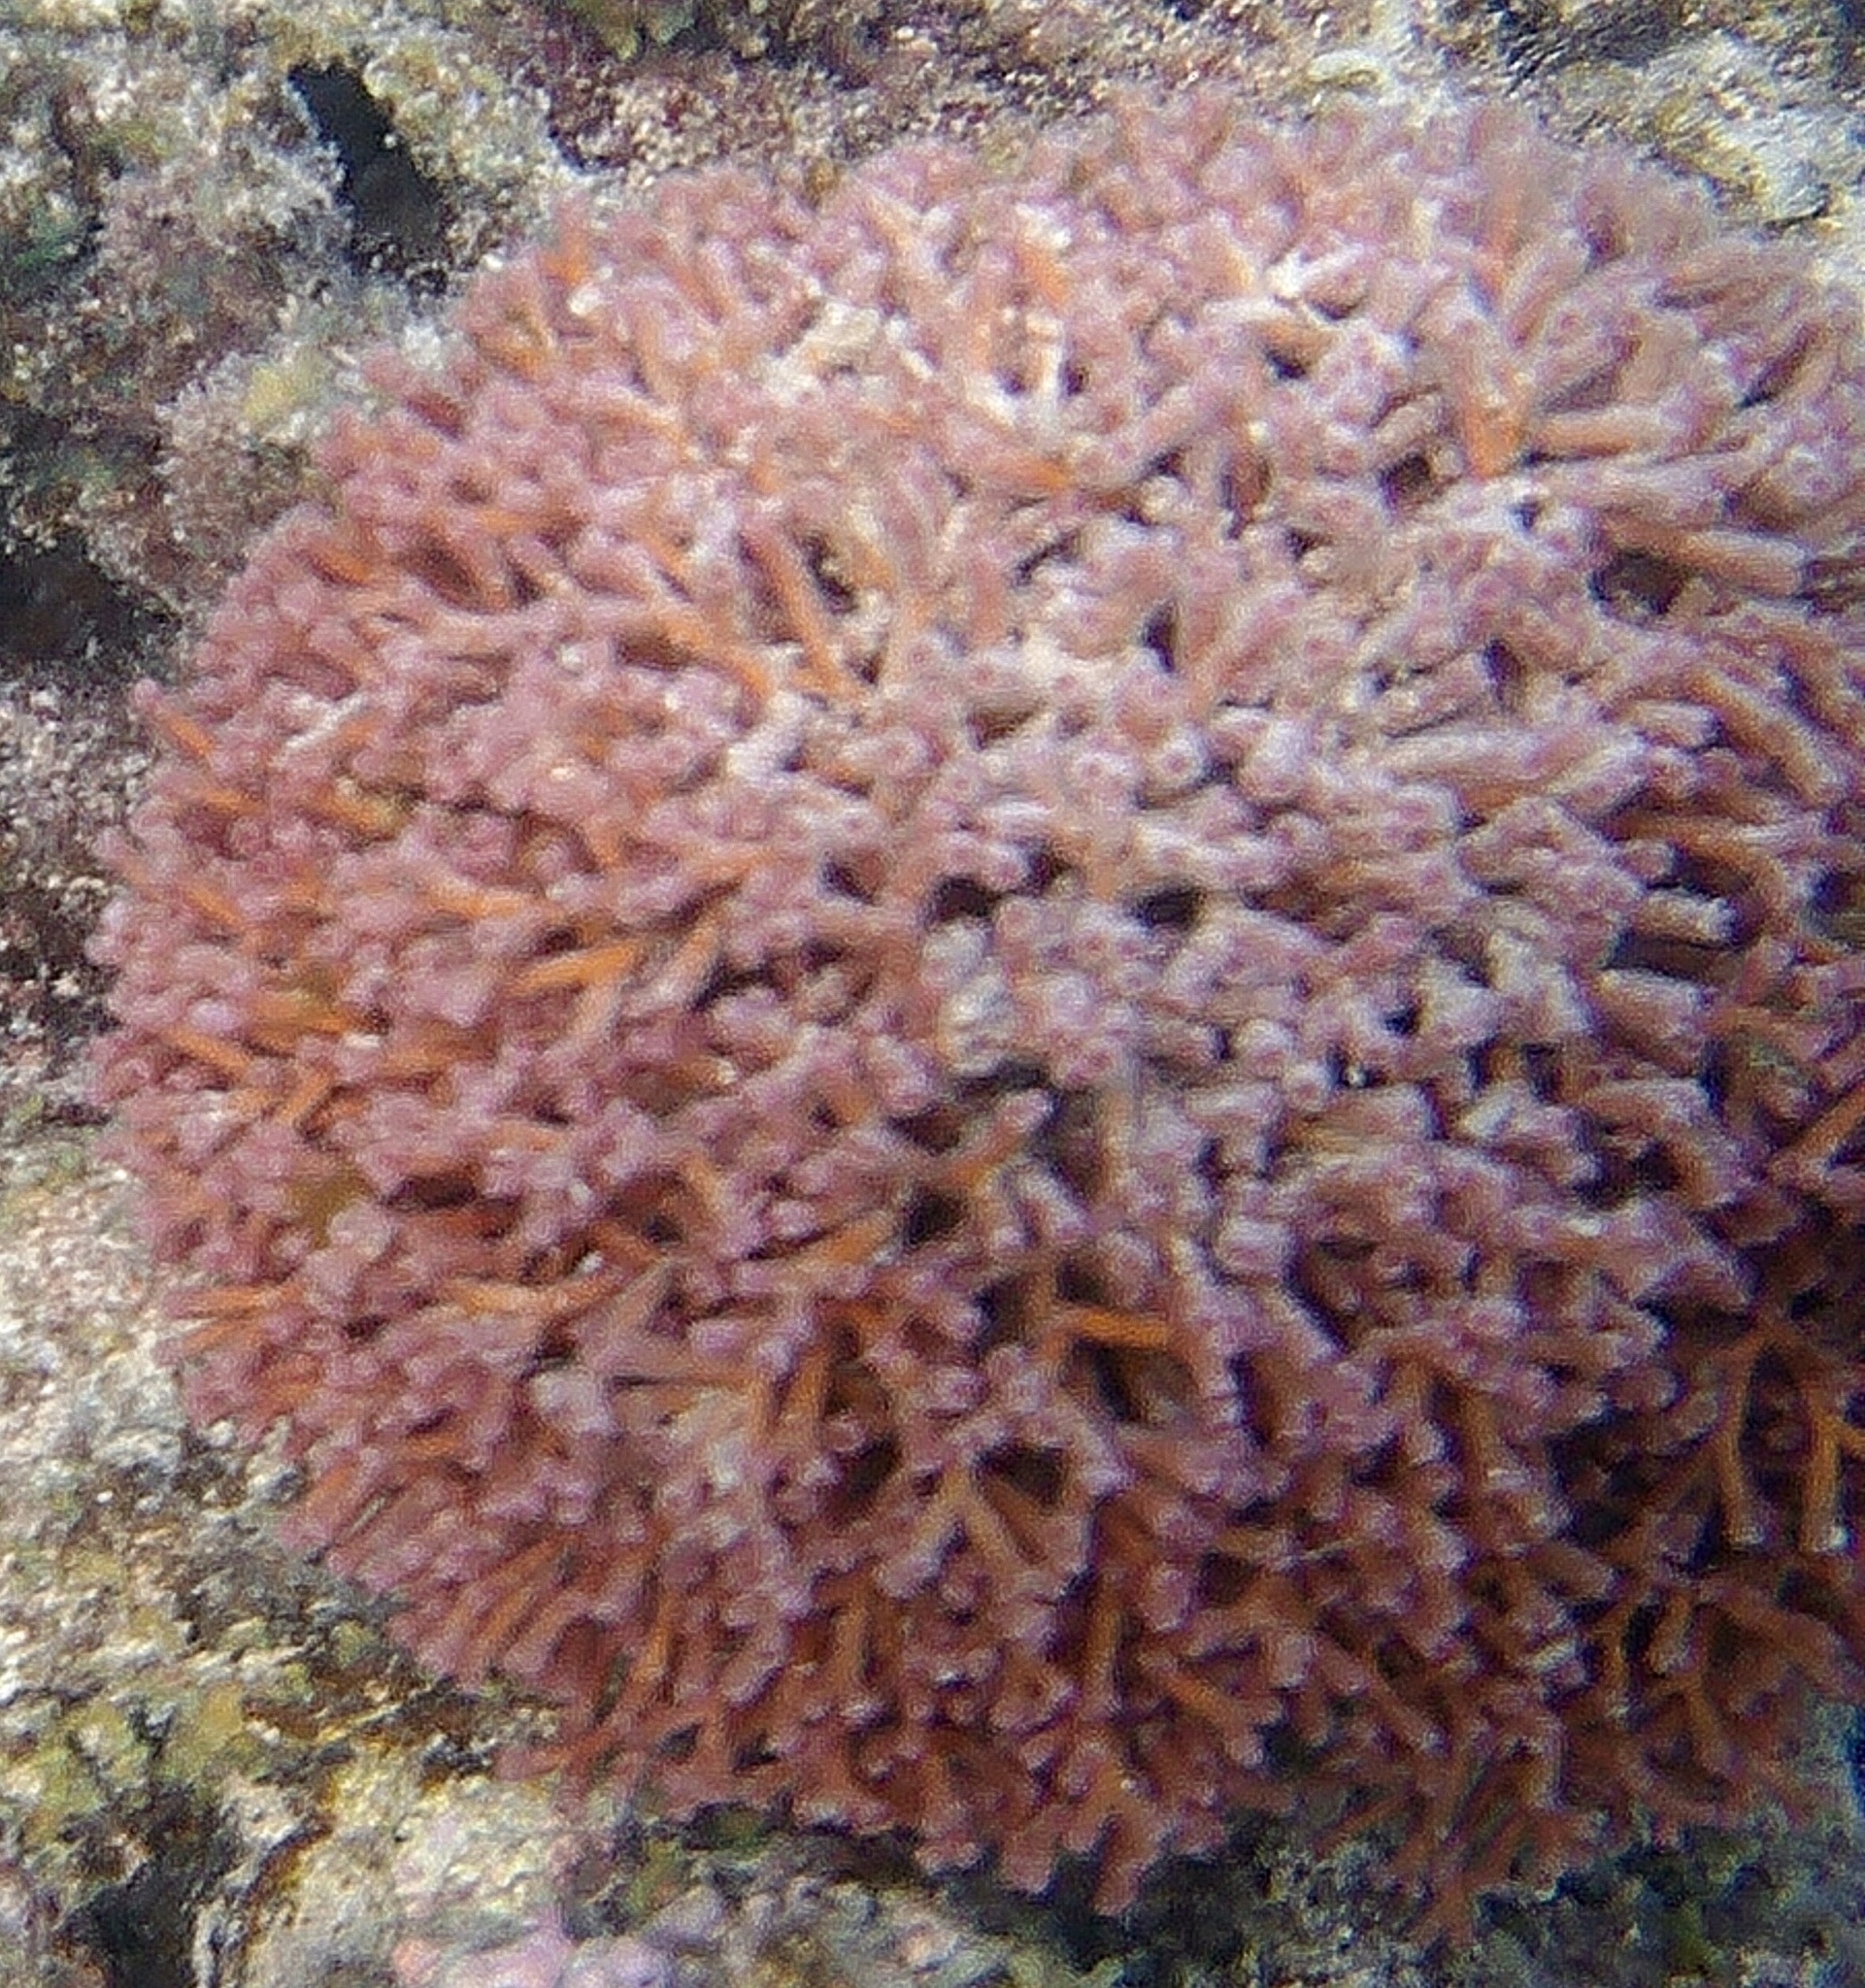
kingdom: Plantae
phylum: Rhodophyta
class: Florideophyceae
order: Nemaliales
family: Galaxauraceae
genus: Galaxaura
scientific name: Galaxaura
